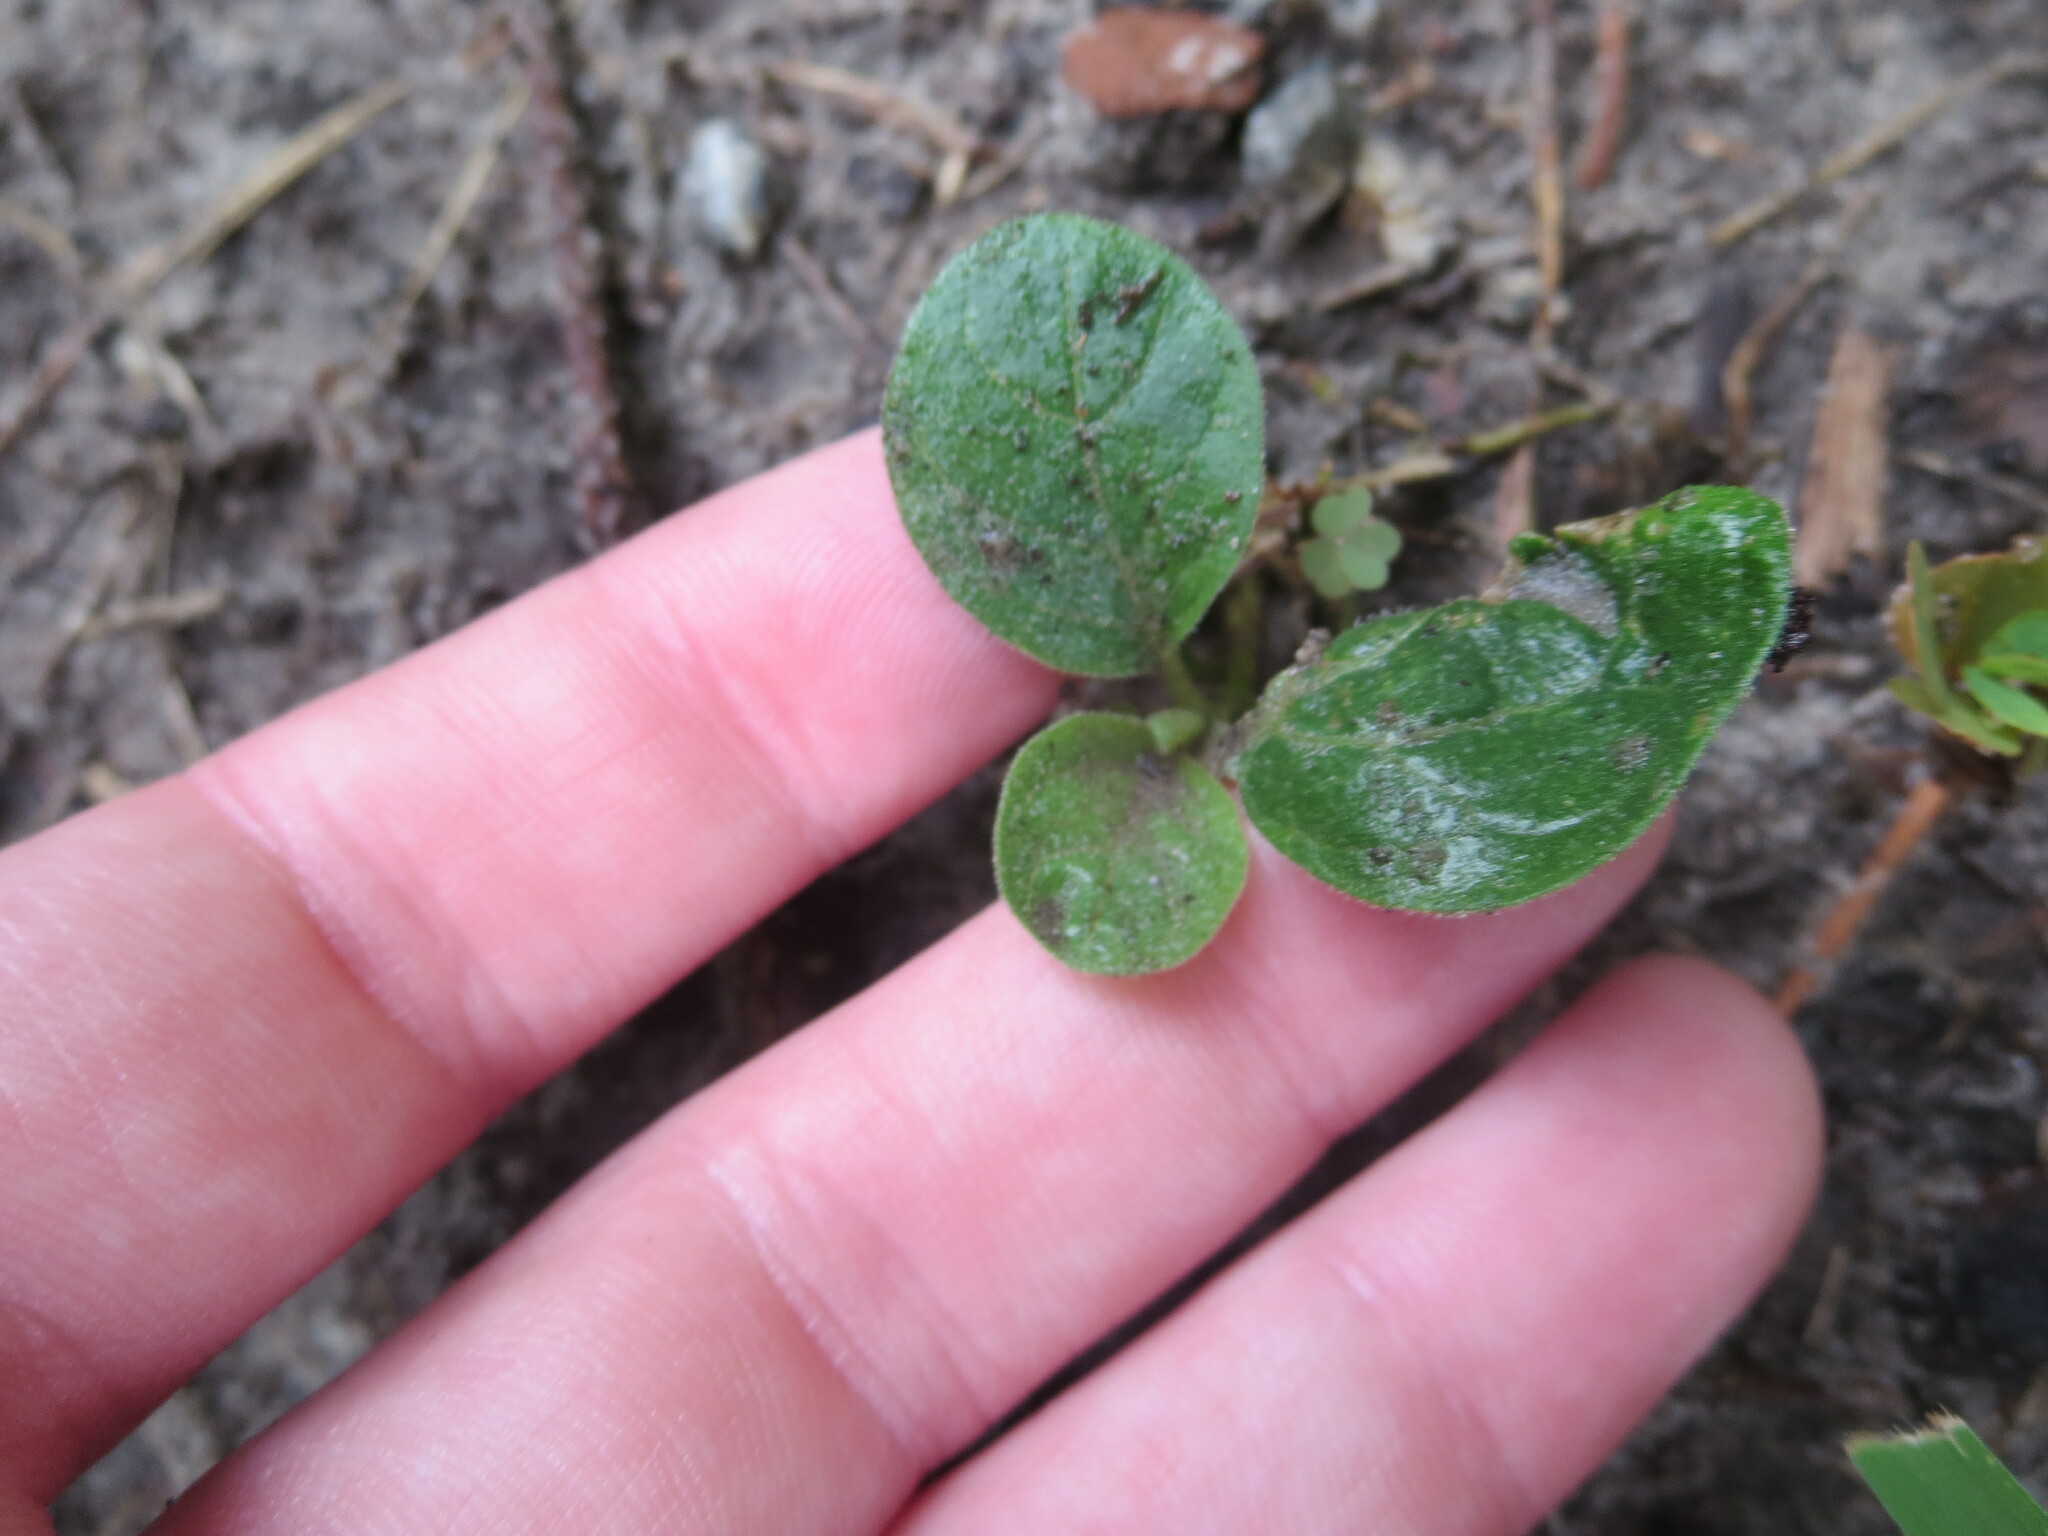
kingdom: Plantae
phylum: Tracheophyta
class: Magnoliopsida
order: Solanales
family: Solanaceae
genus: Physalis
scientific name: Physalis walteri
